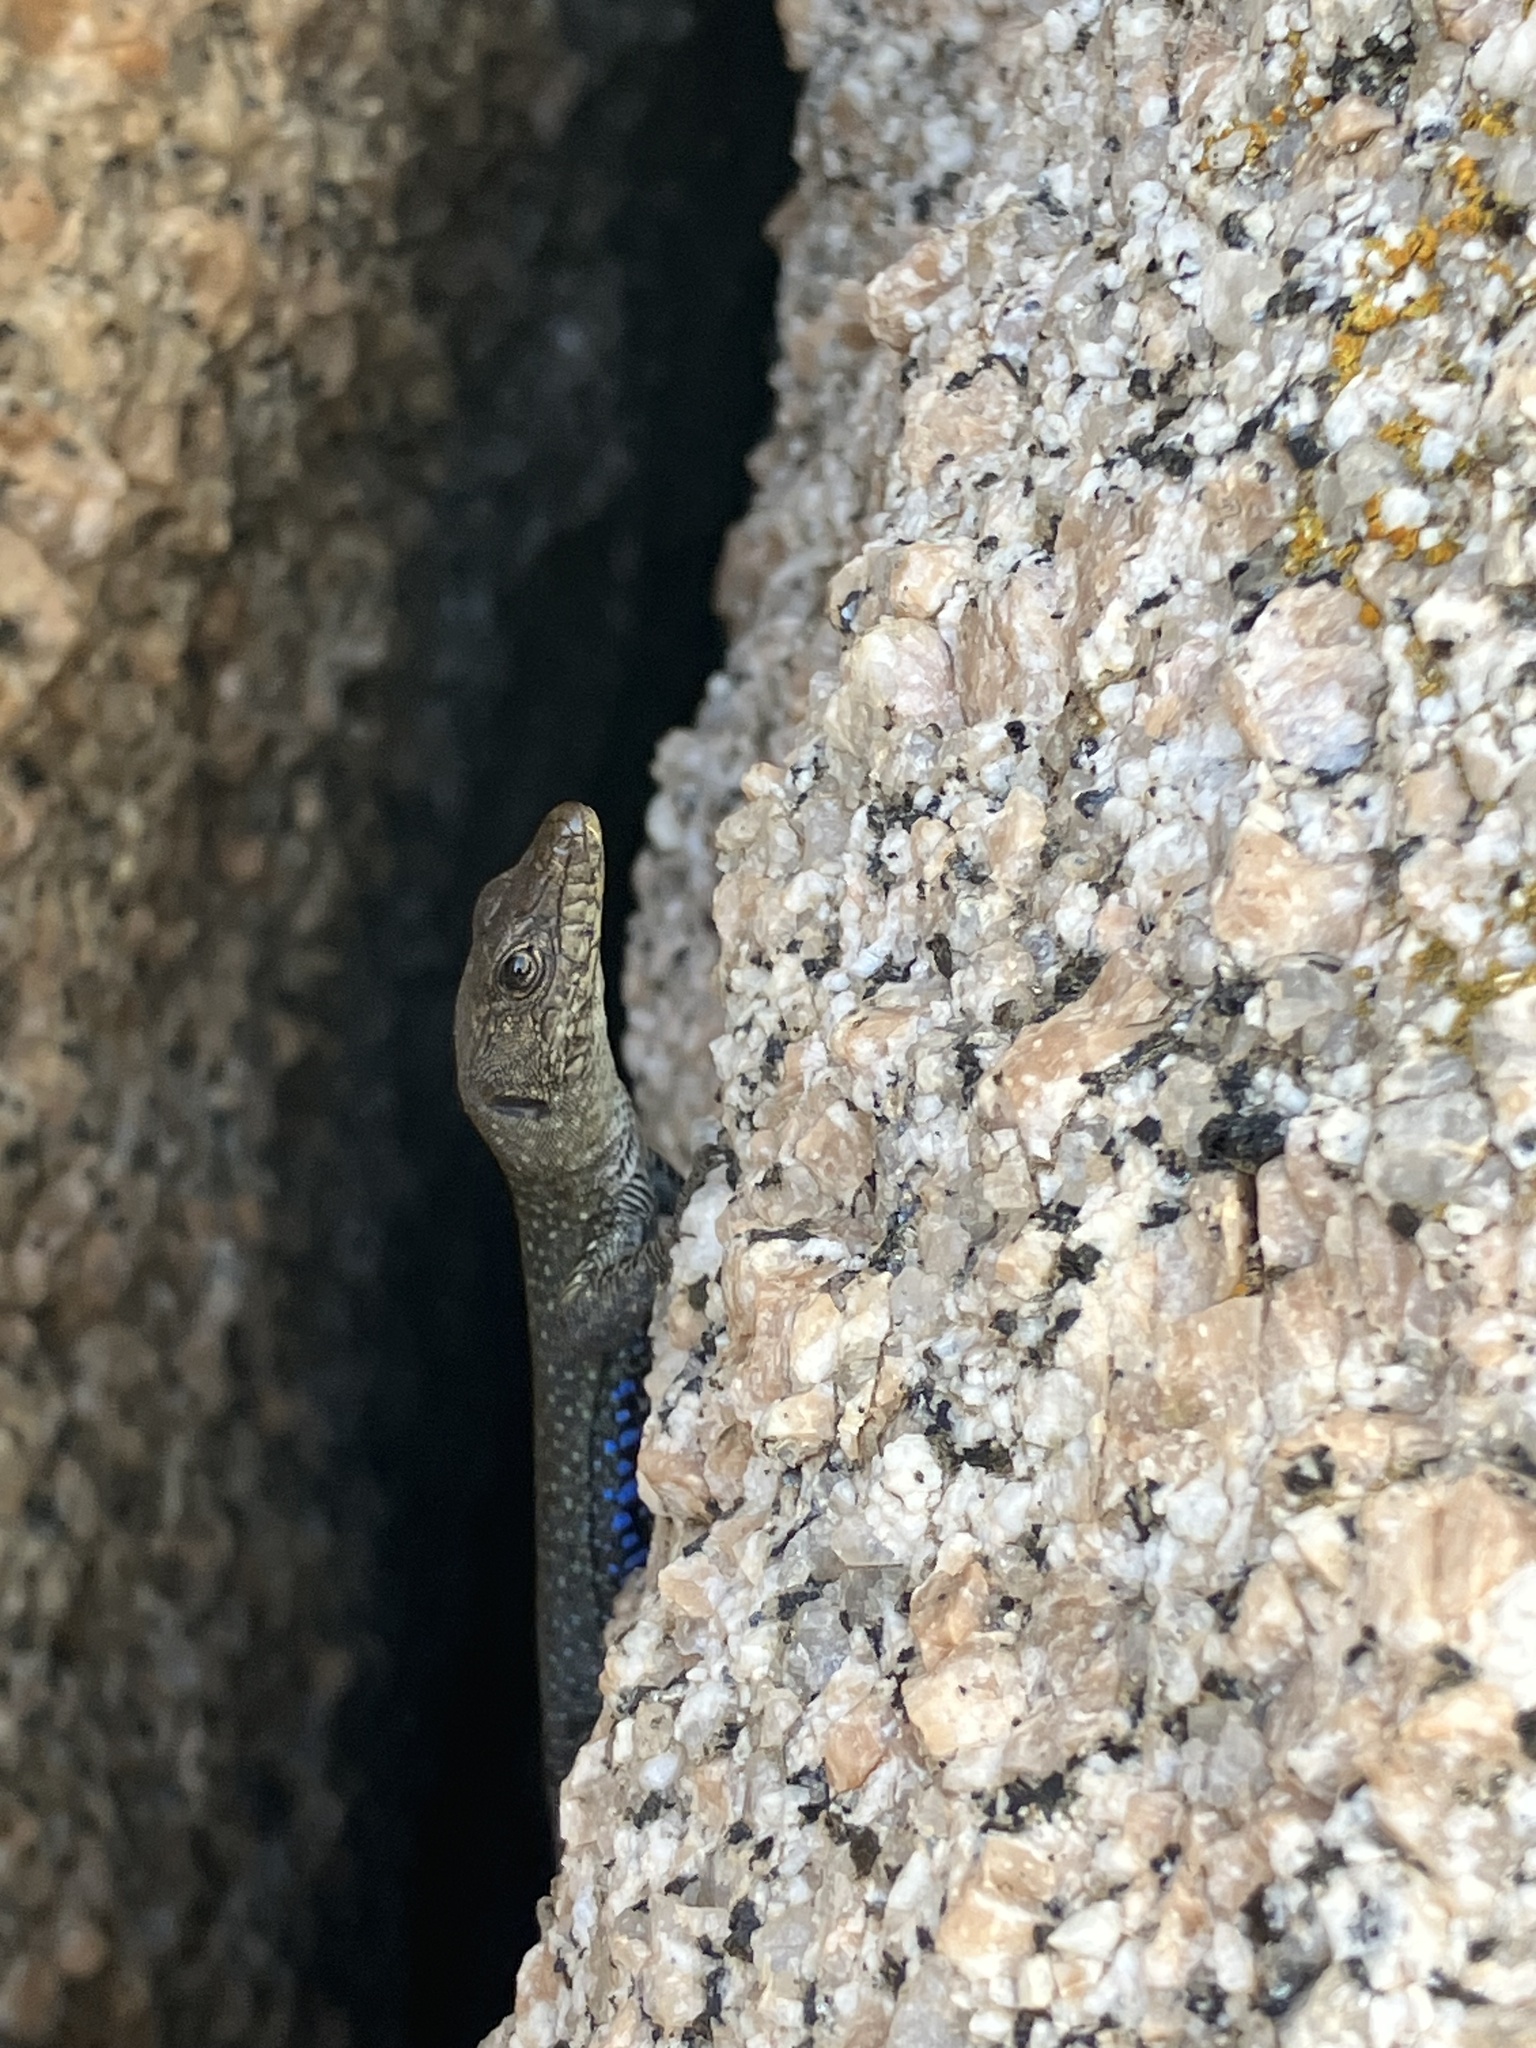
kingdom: Animalia
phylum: Chordata
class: Squamata
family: Lacertidae
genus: Archaeolacerta
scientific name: Archaeolacerta bedriagae
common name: Bedriaga's rock lizard
